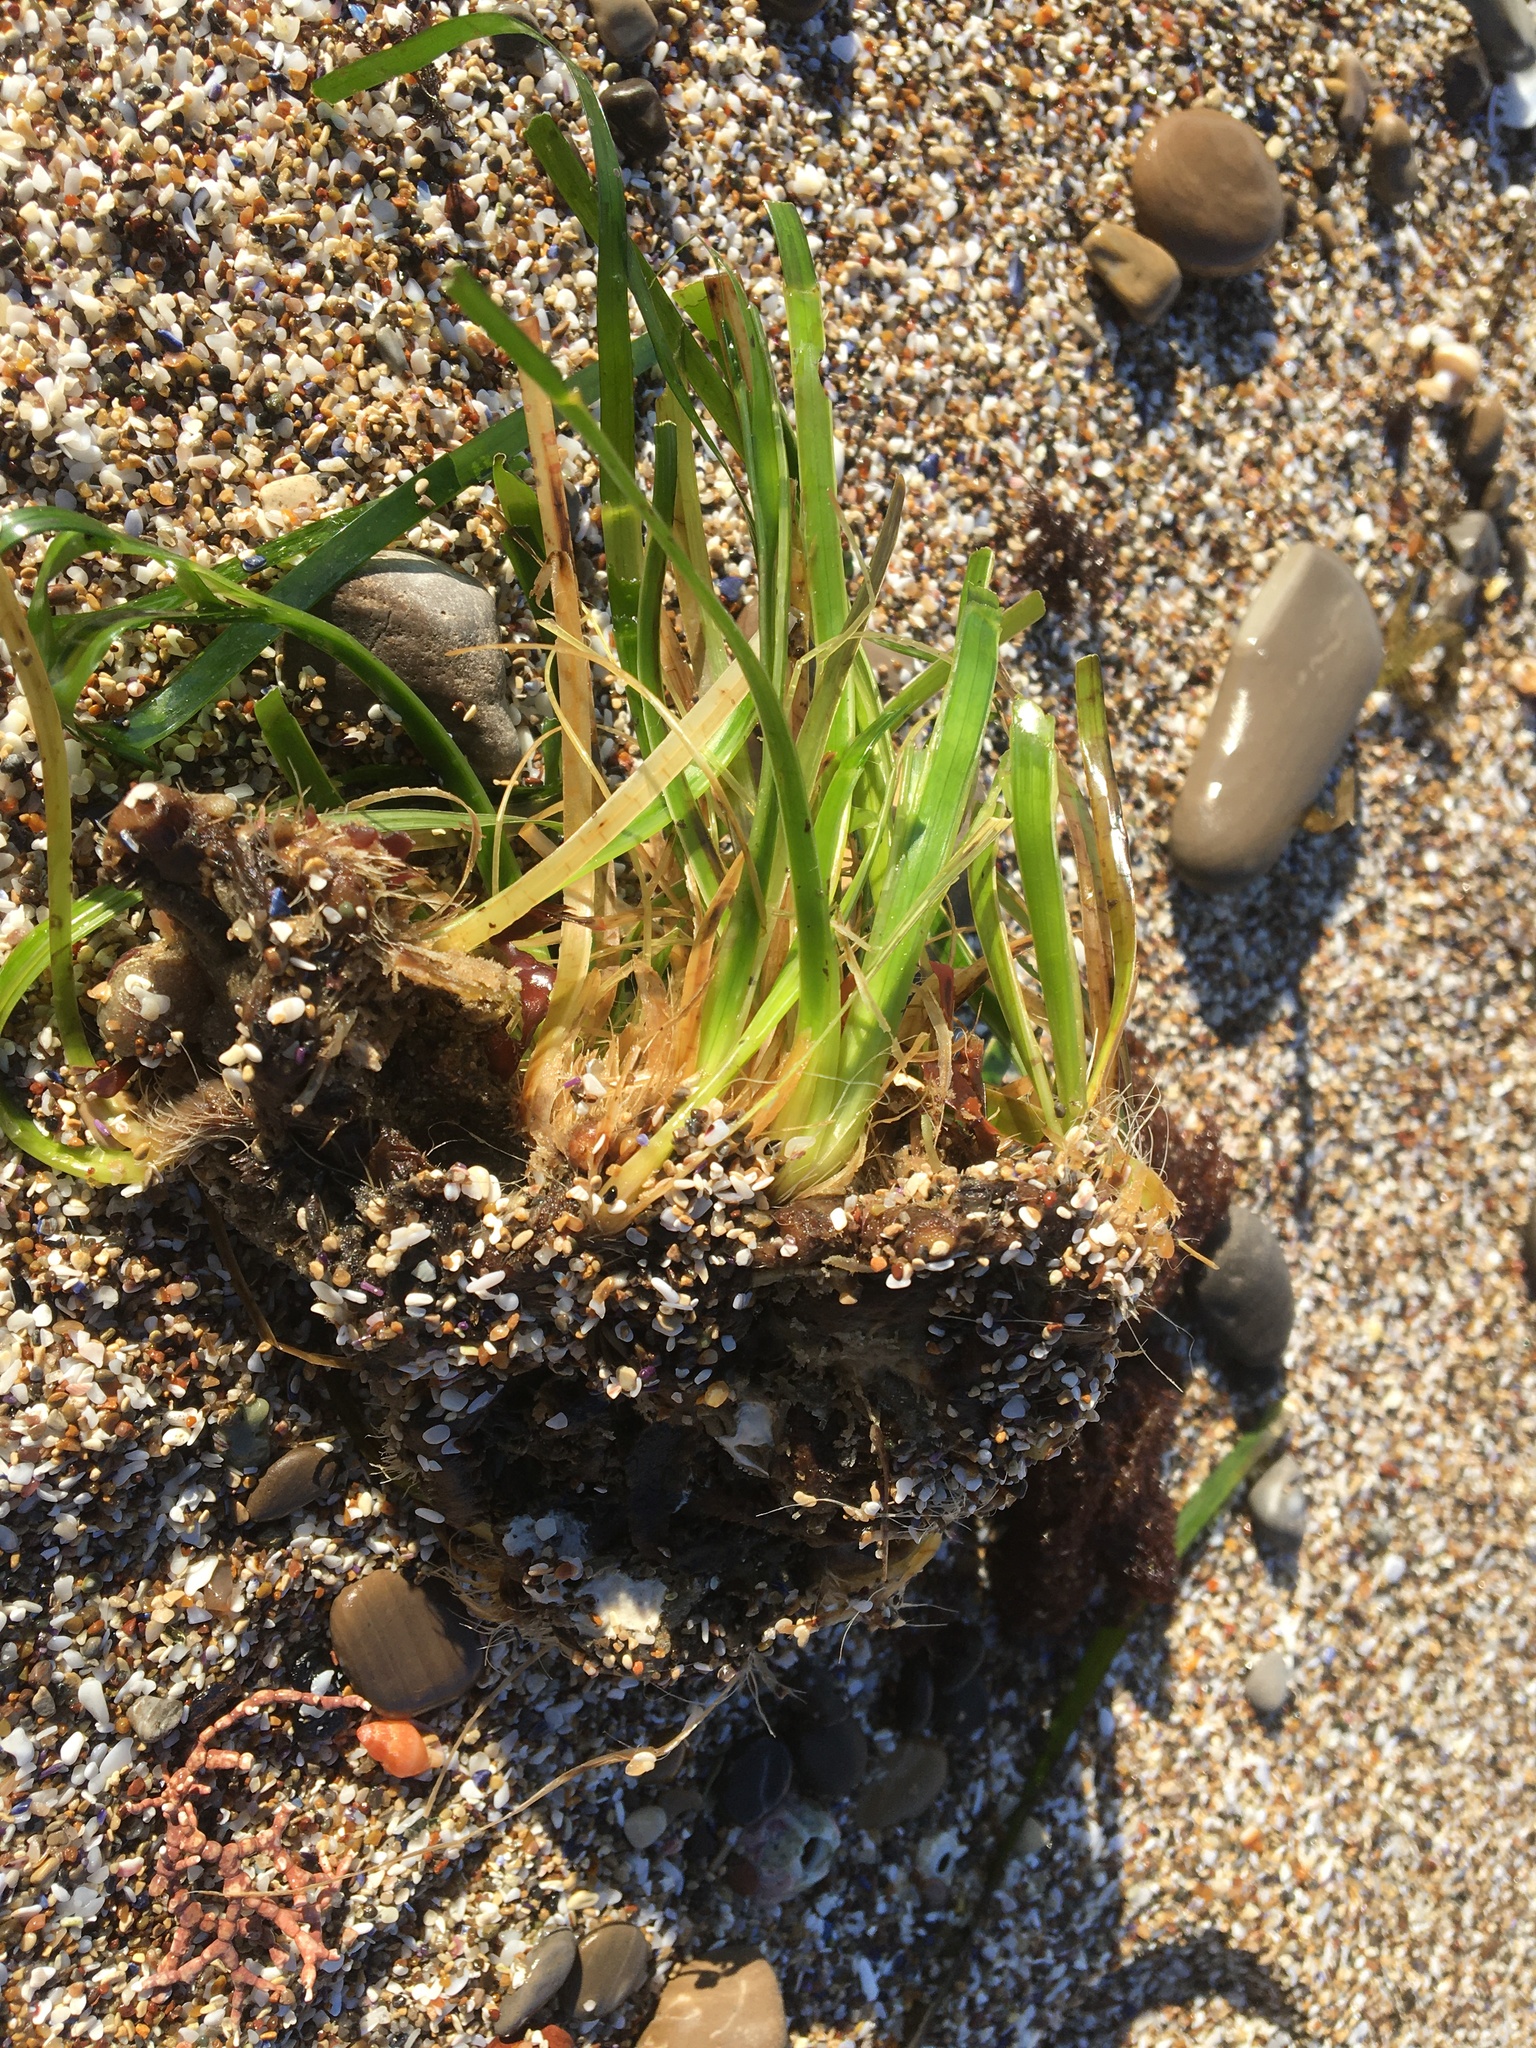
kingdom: Plantae
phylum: Tracheophyta
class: Liliopsida
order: Alismatales
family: Zosteraceae
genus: Phyllospadix
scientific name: Phyllospadix scouleri
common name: Species code: ps
